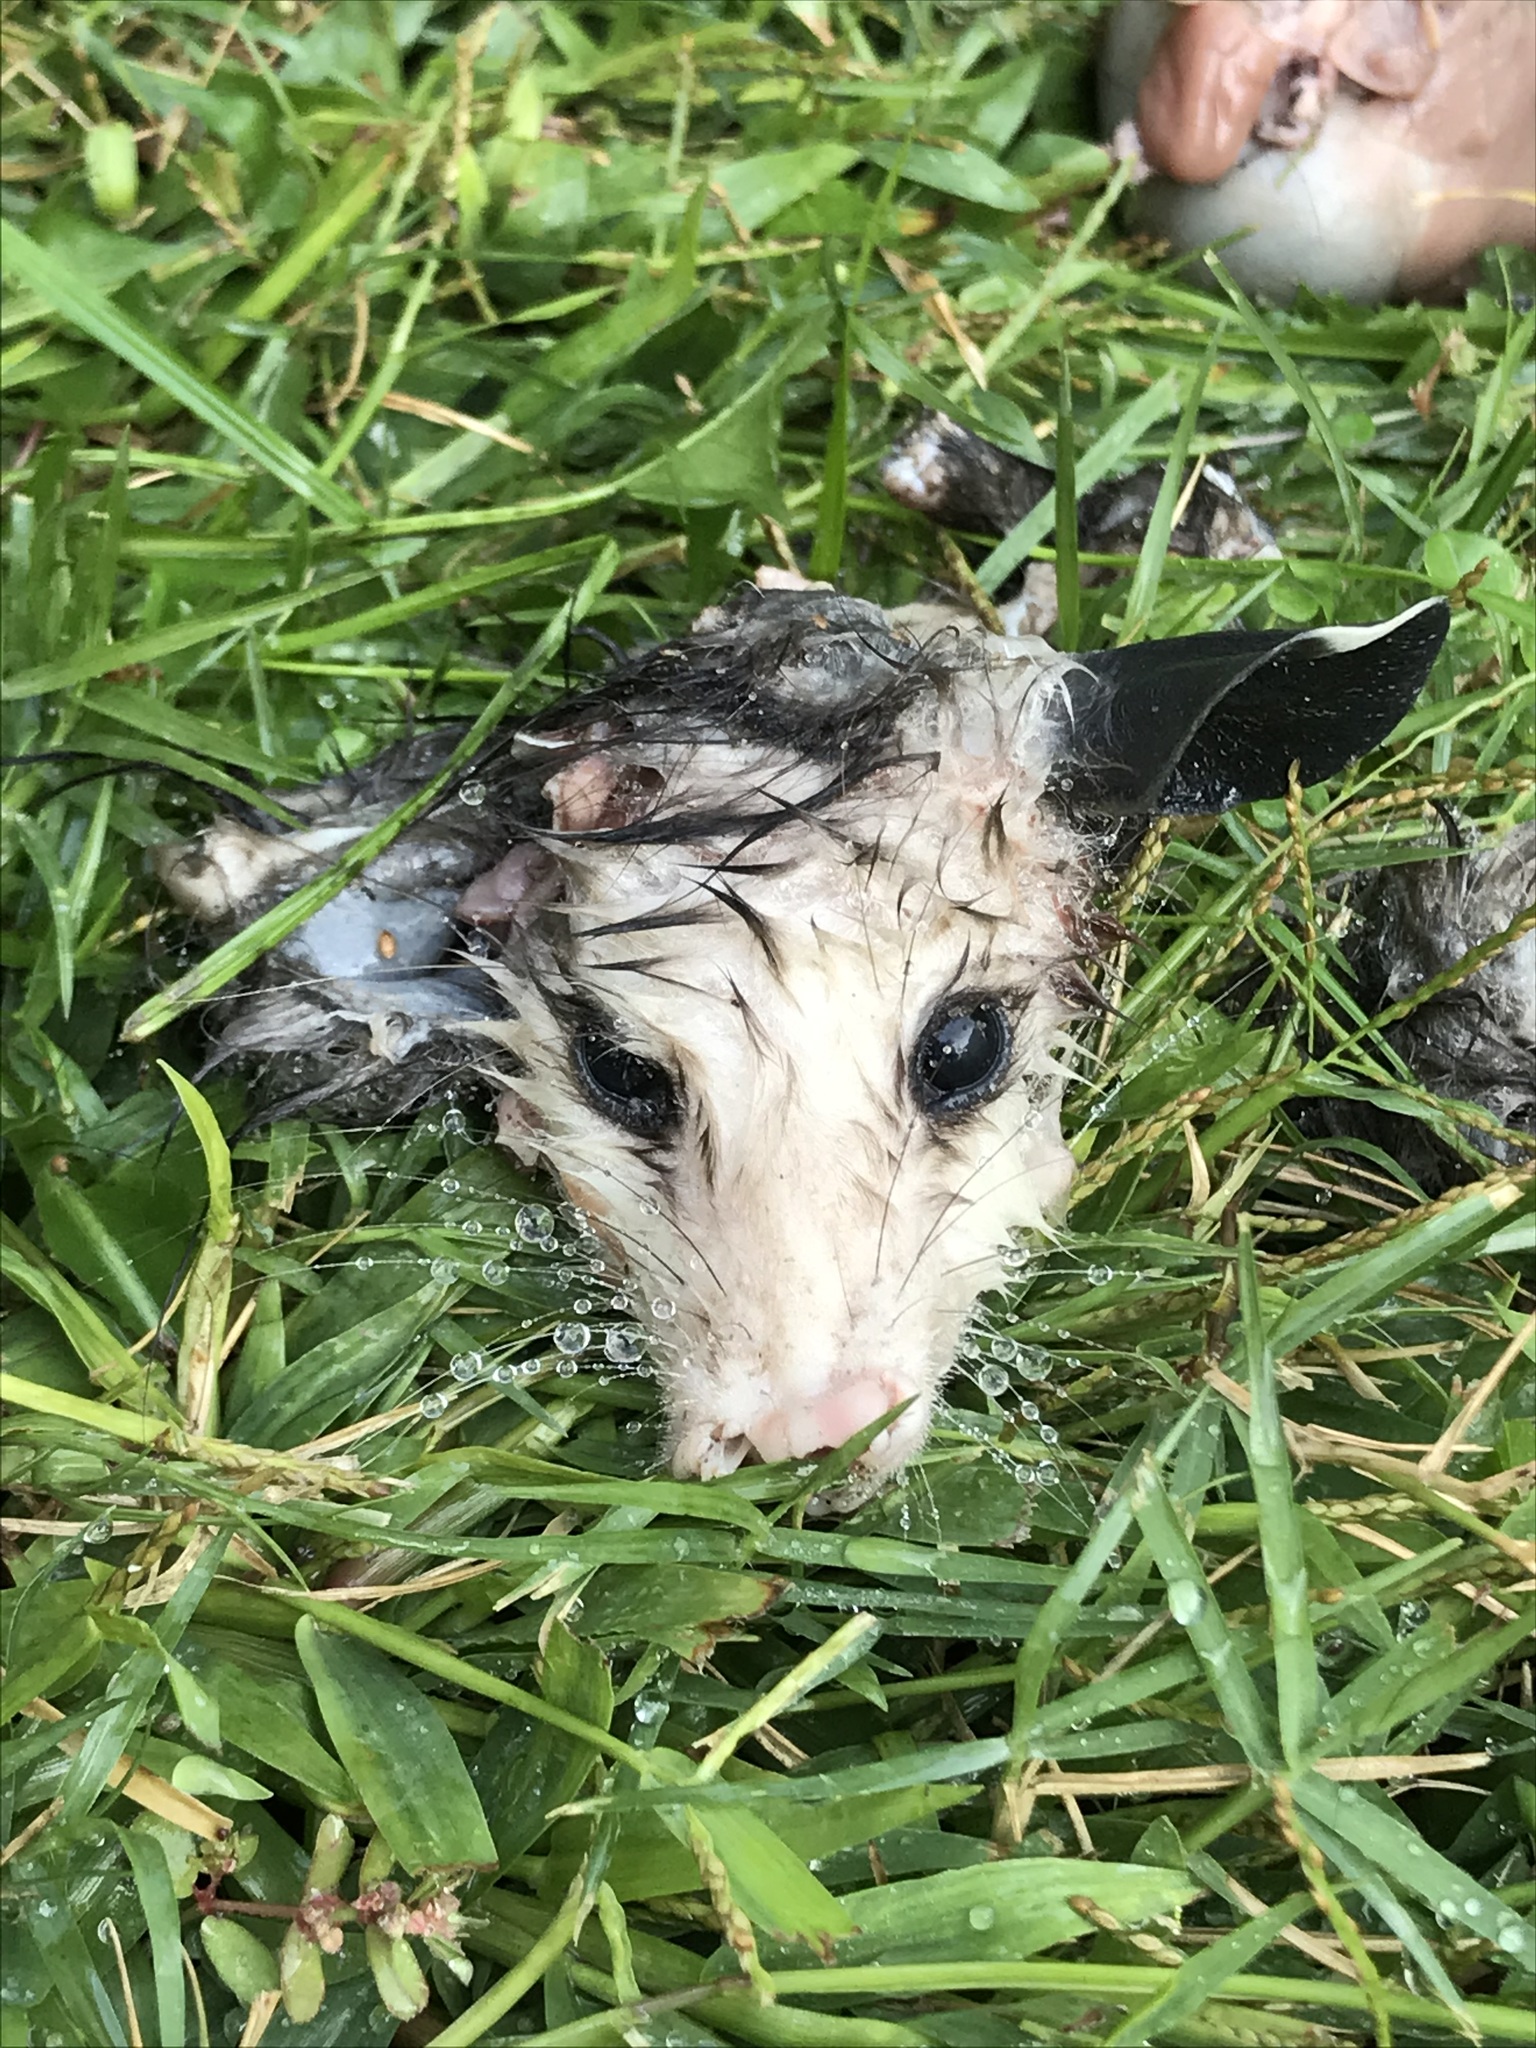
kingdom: Animalia
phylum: Chordata
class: Mammalia
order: Didelphimorphia
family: Didelphidae
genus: Didelphis
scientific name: Didelphis virginiana
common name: Virginia opossum
